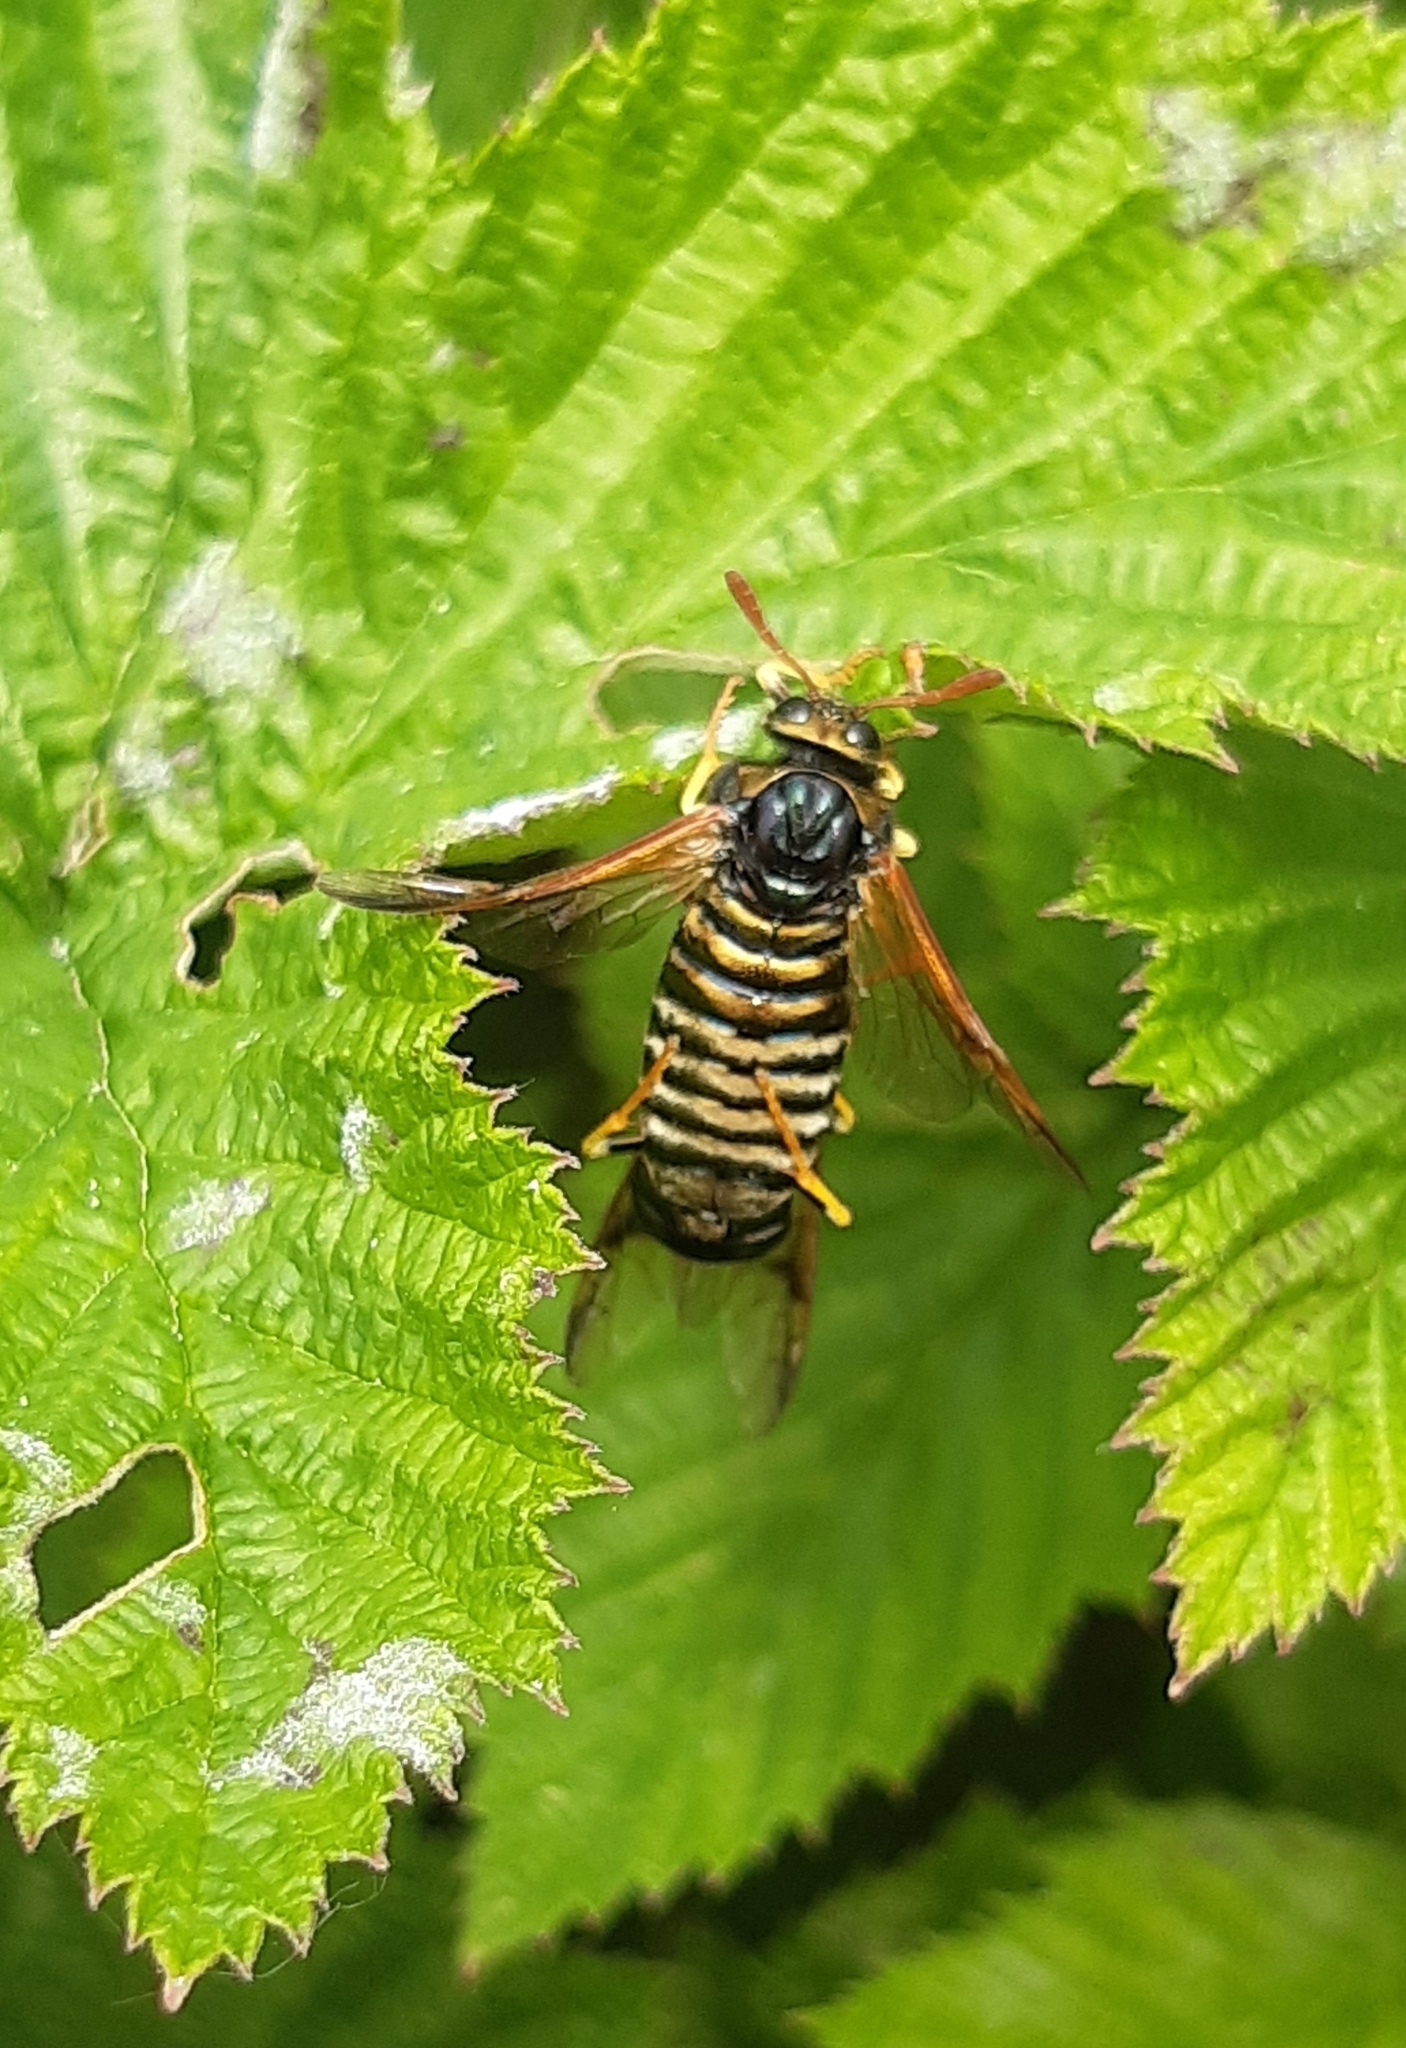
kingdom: Animalia
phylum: Arthropoda
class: Insecta
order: Hymenoptera
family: Cimbicidae
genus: Abia
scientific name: Abia nitens
